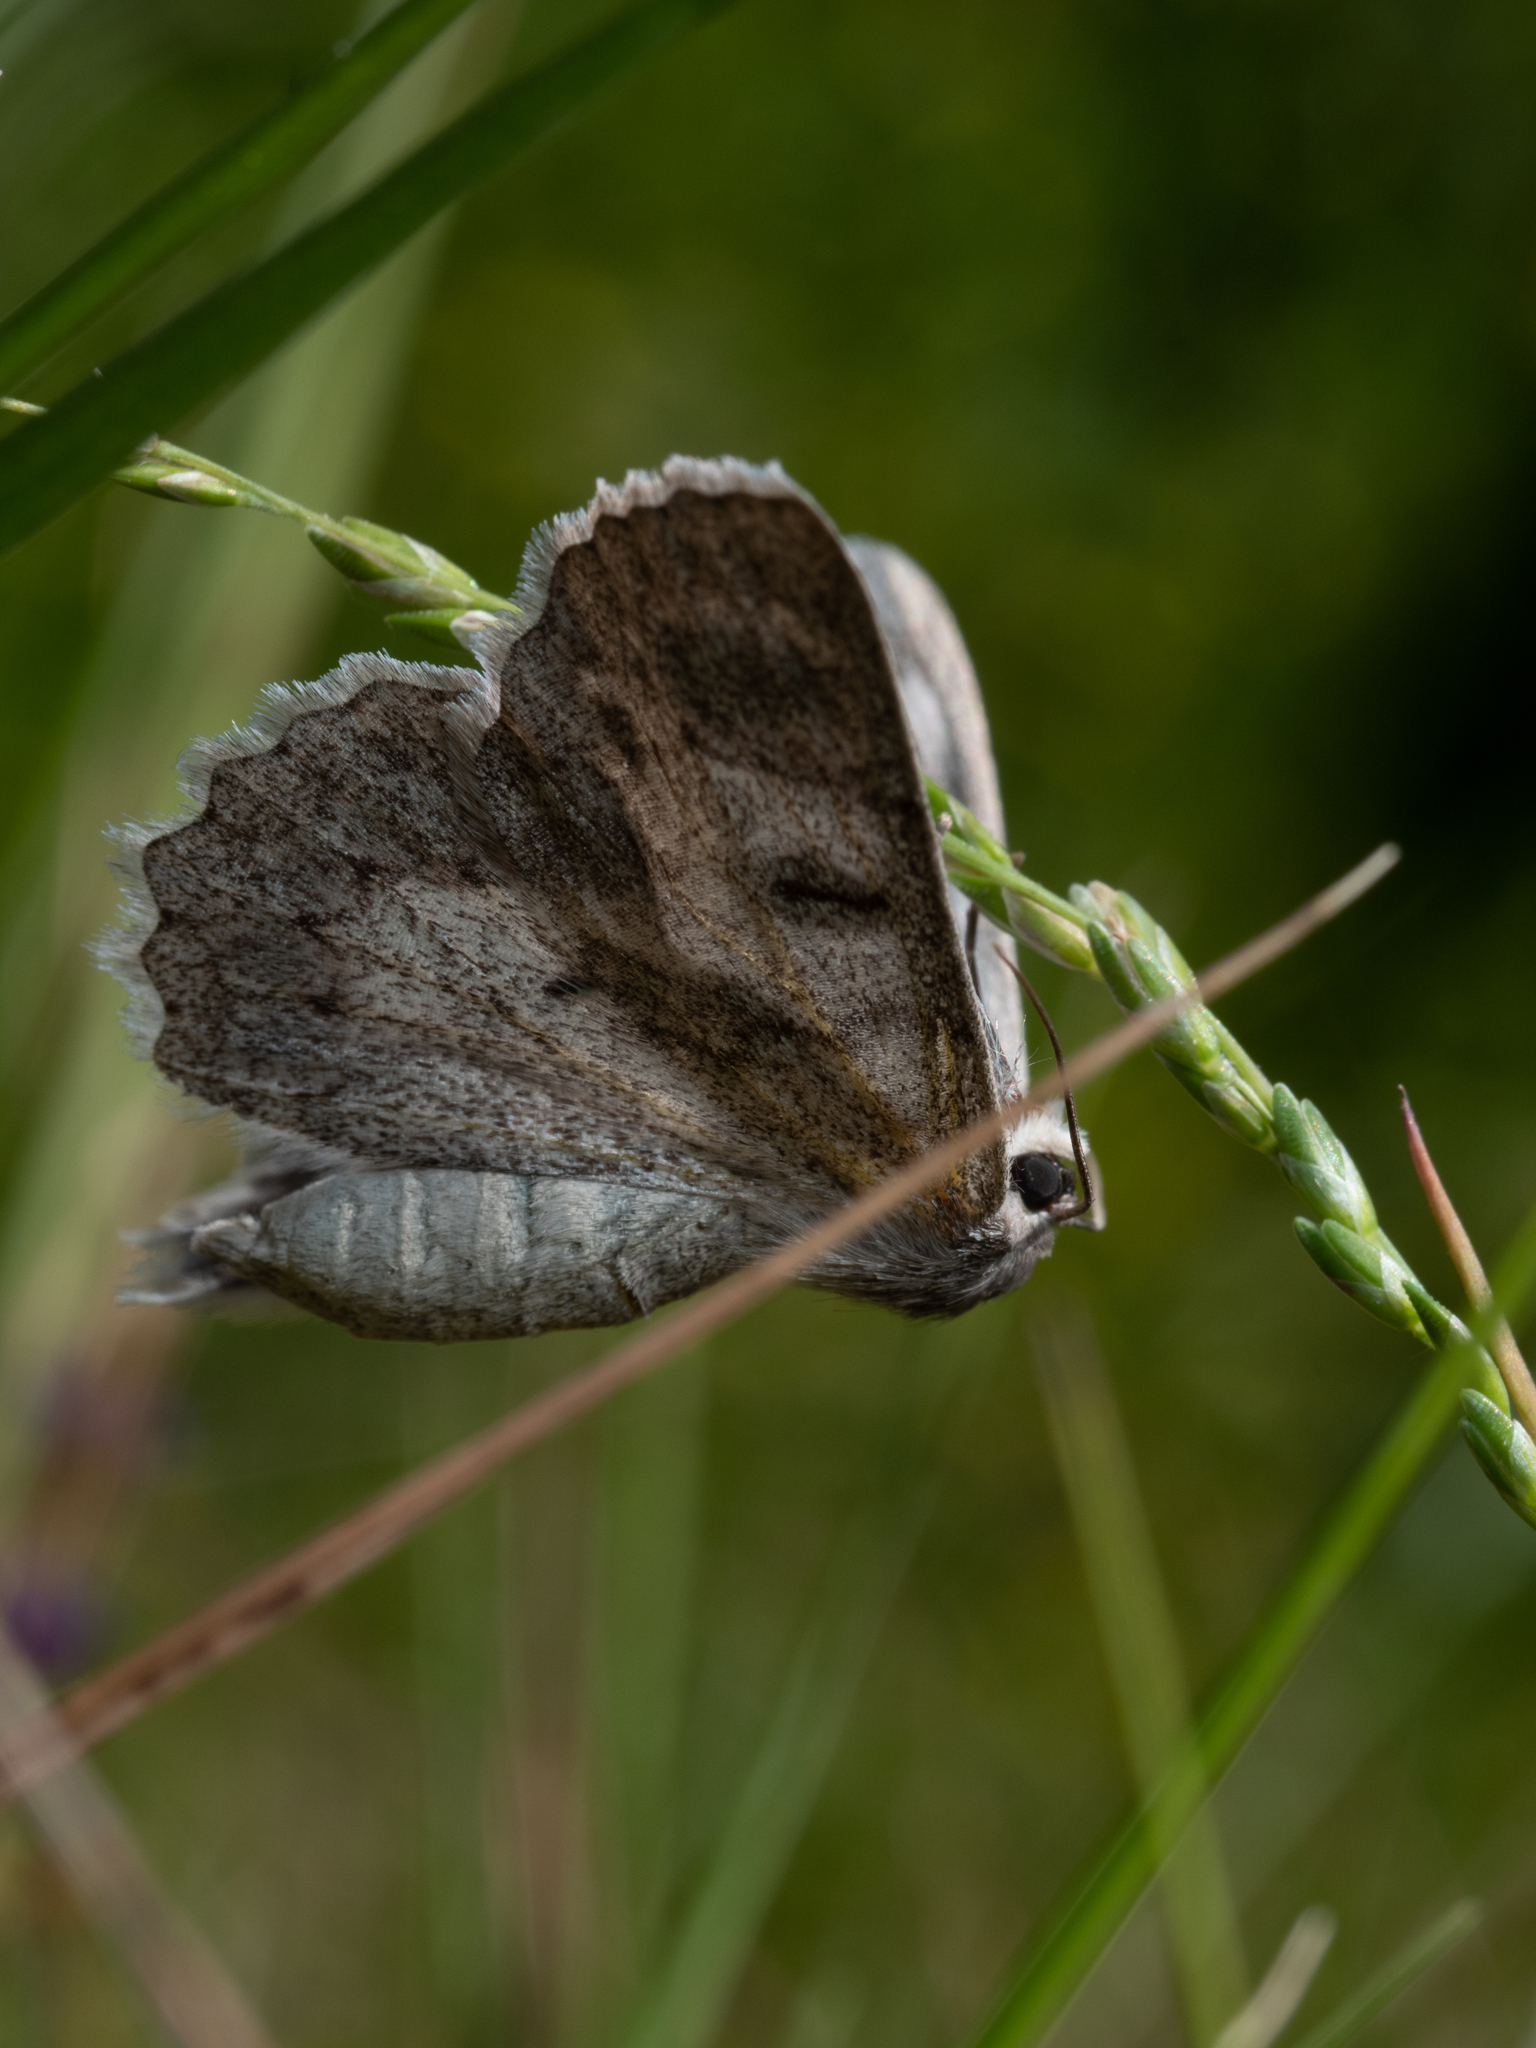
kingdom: Animalia
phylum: Arthropoda
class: Insecta
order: Lepidoptera
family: Geometridae
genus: Crypsiphona
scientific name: Crypsiphona ocultaria
